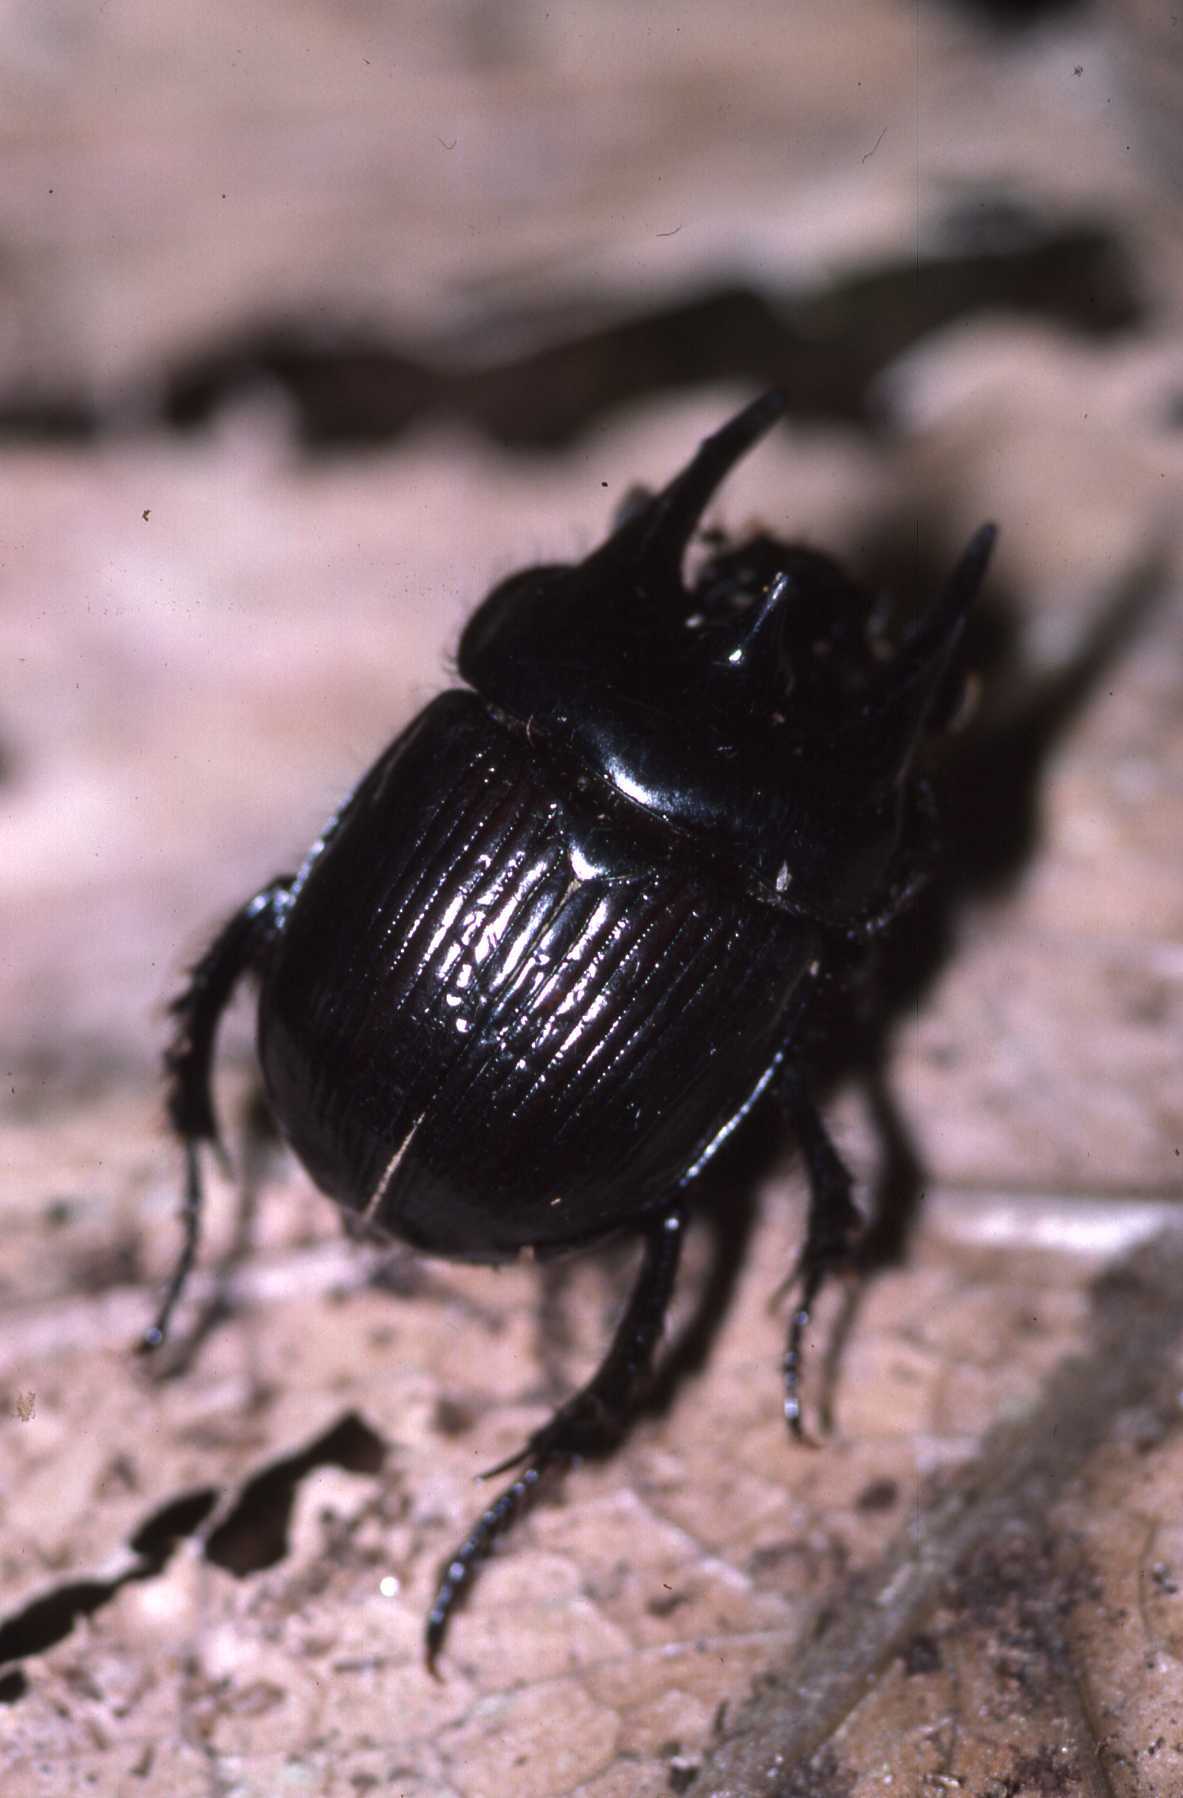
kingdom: Animalia
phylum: Arthropoda
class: Insecta
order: Coleoptera
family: Geotrupidae
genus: Typhaeus
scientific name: Typhaeus typhoeus
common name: Minotaur beetle
